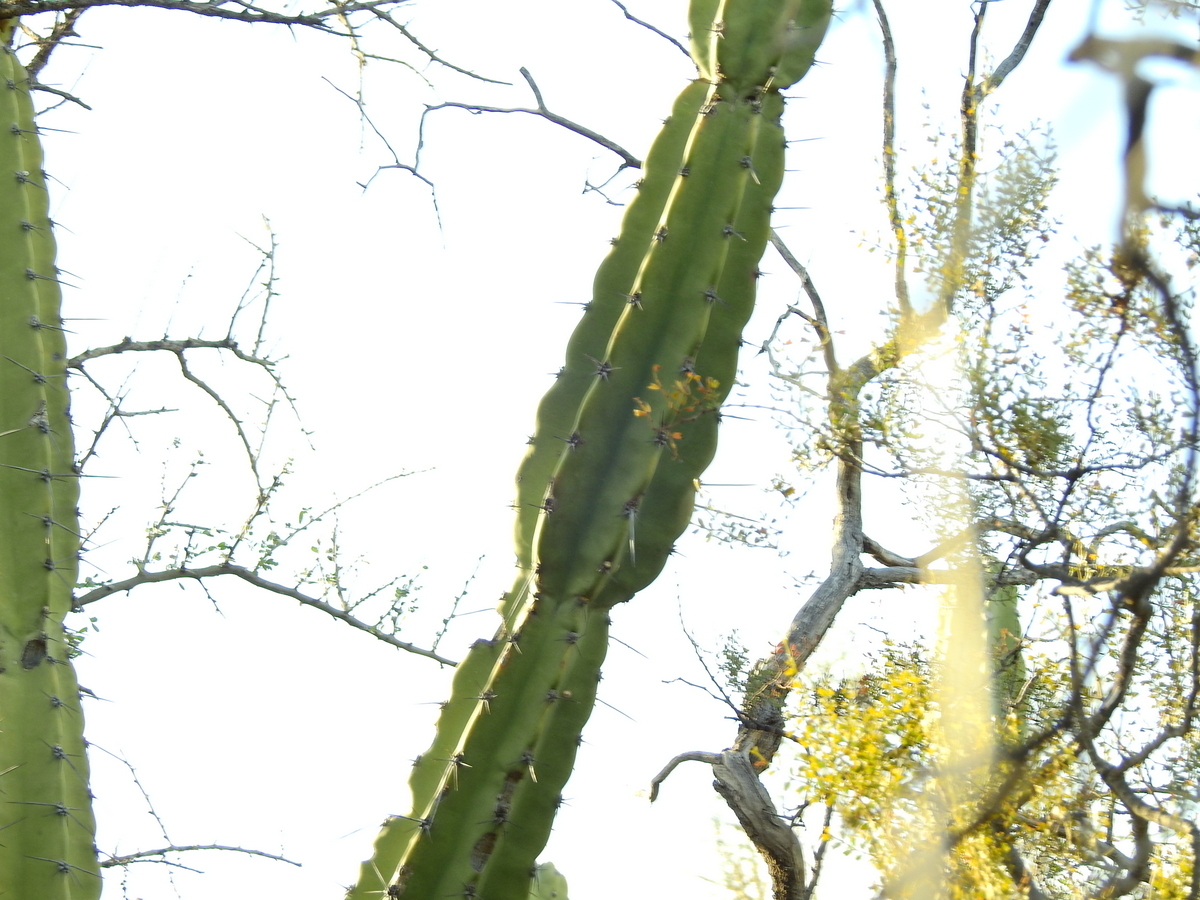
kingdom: Plantae
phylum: Tracheophyta
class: Magnoliopsida
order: Caryophyllales
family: Cactaceae
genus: Cereus
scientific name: Cereus forbesii
